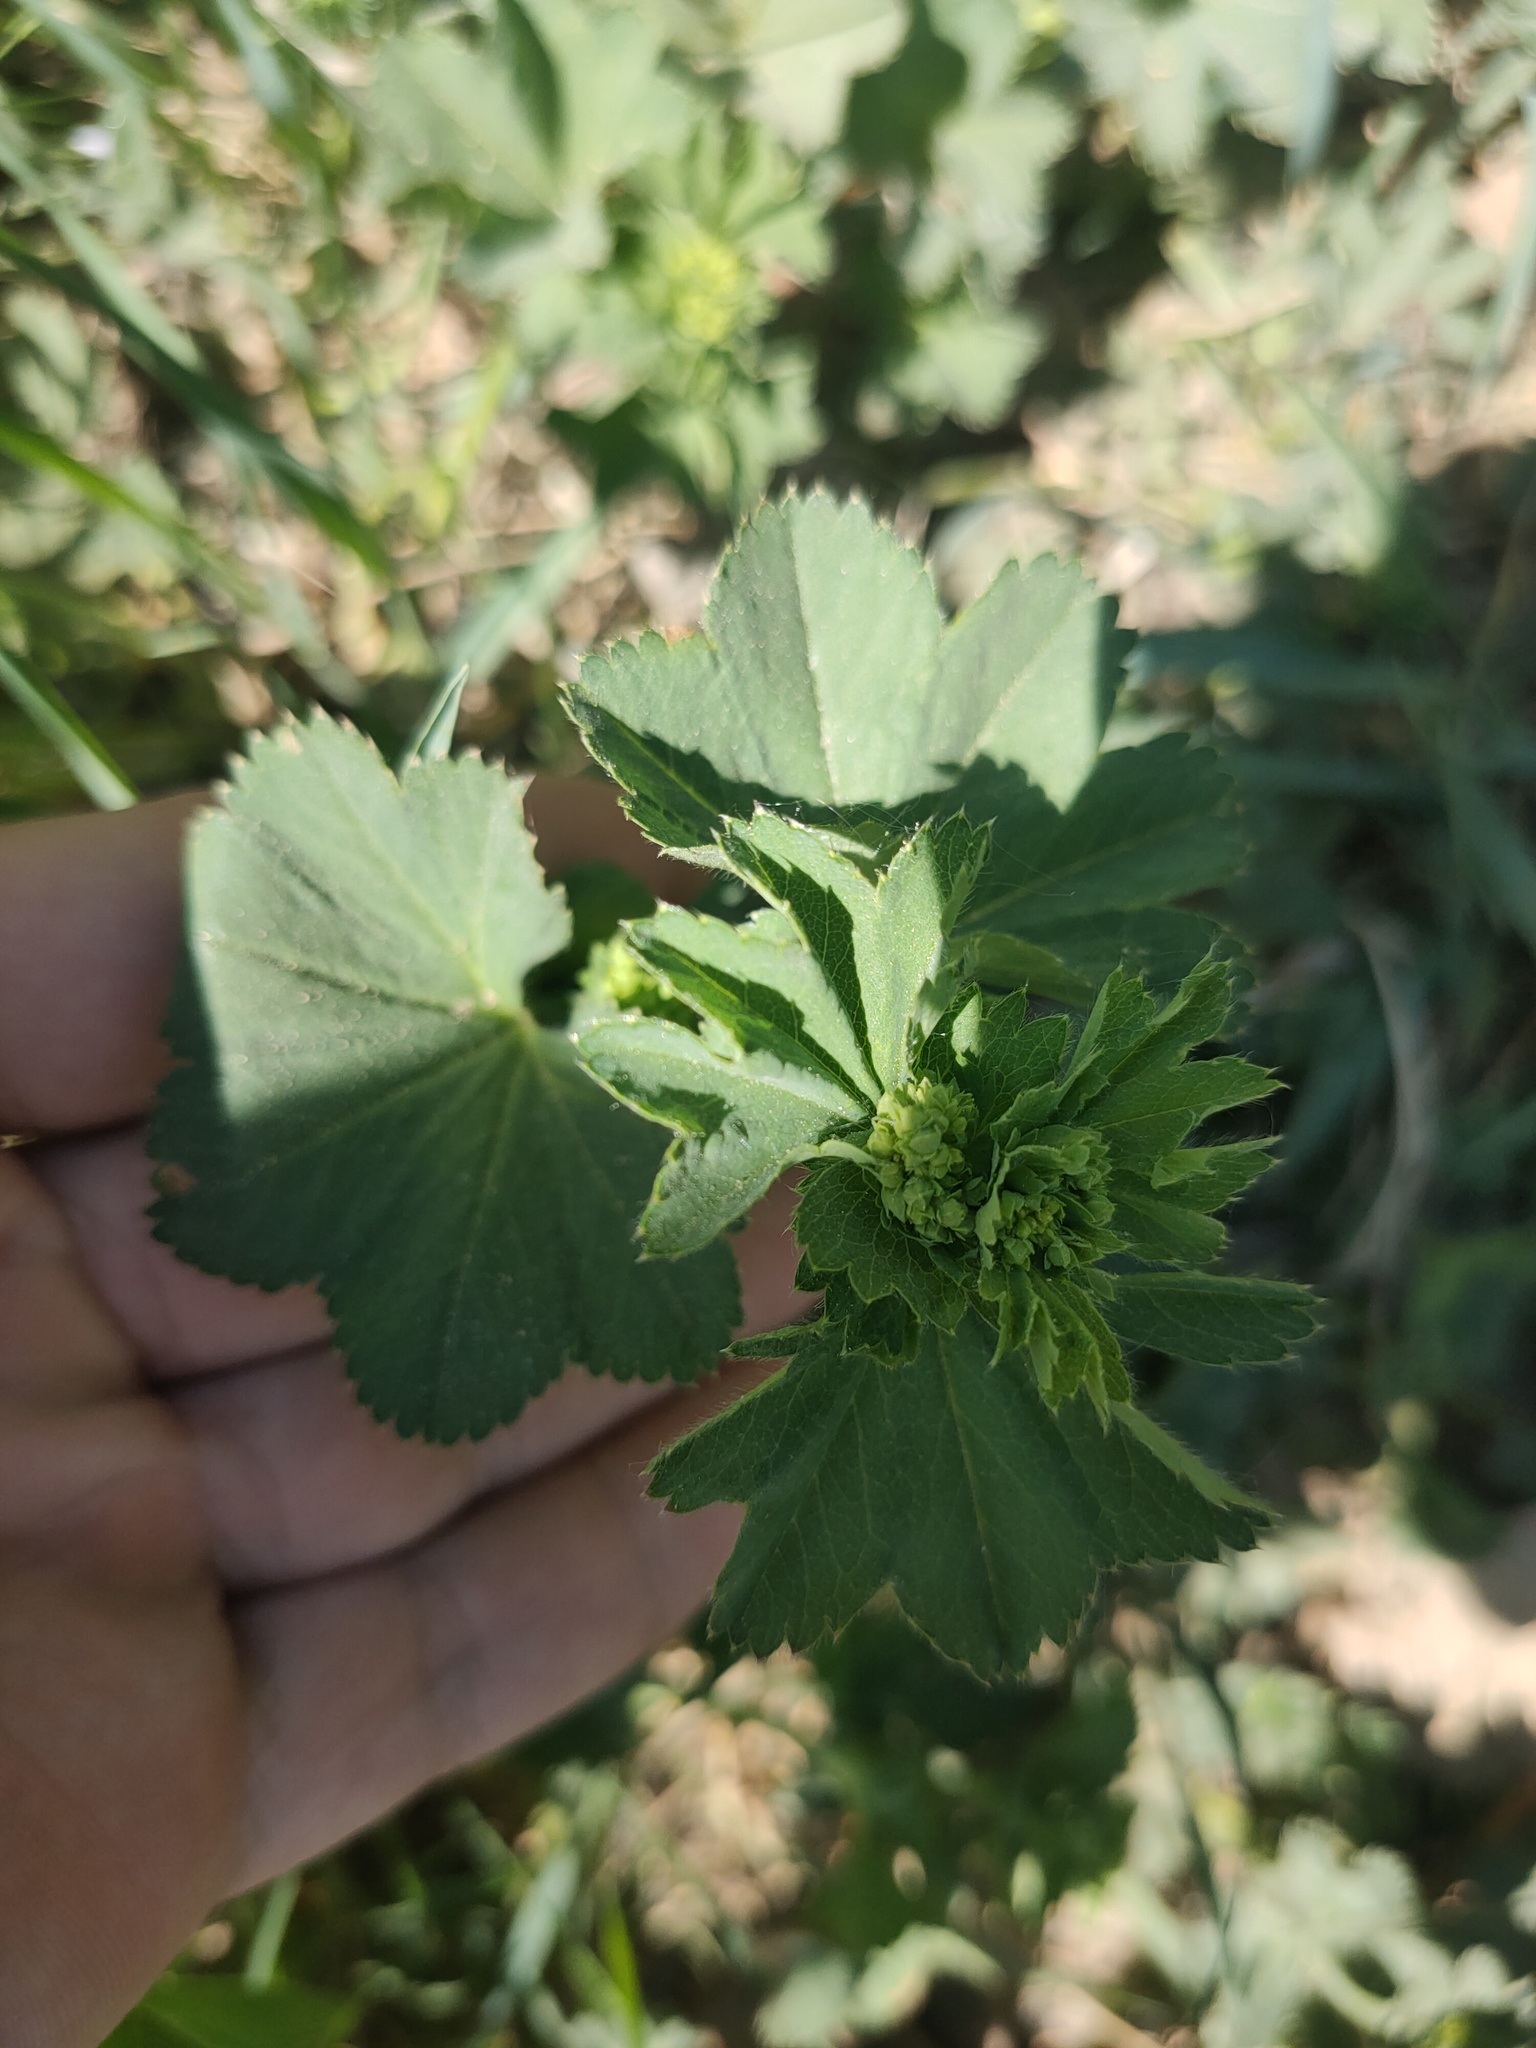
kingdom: Plantae
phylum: Tracheophyta
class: Magnoliopsida
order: Rosales
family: Rosaceae
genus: Alchemilla
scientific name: Alchemilla
